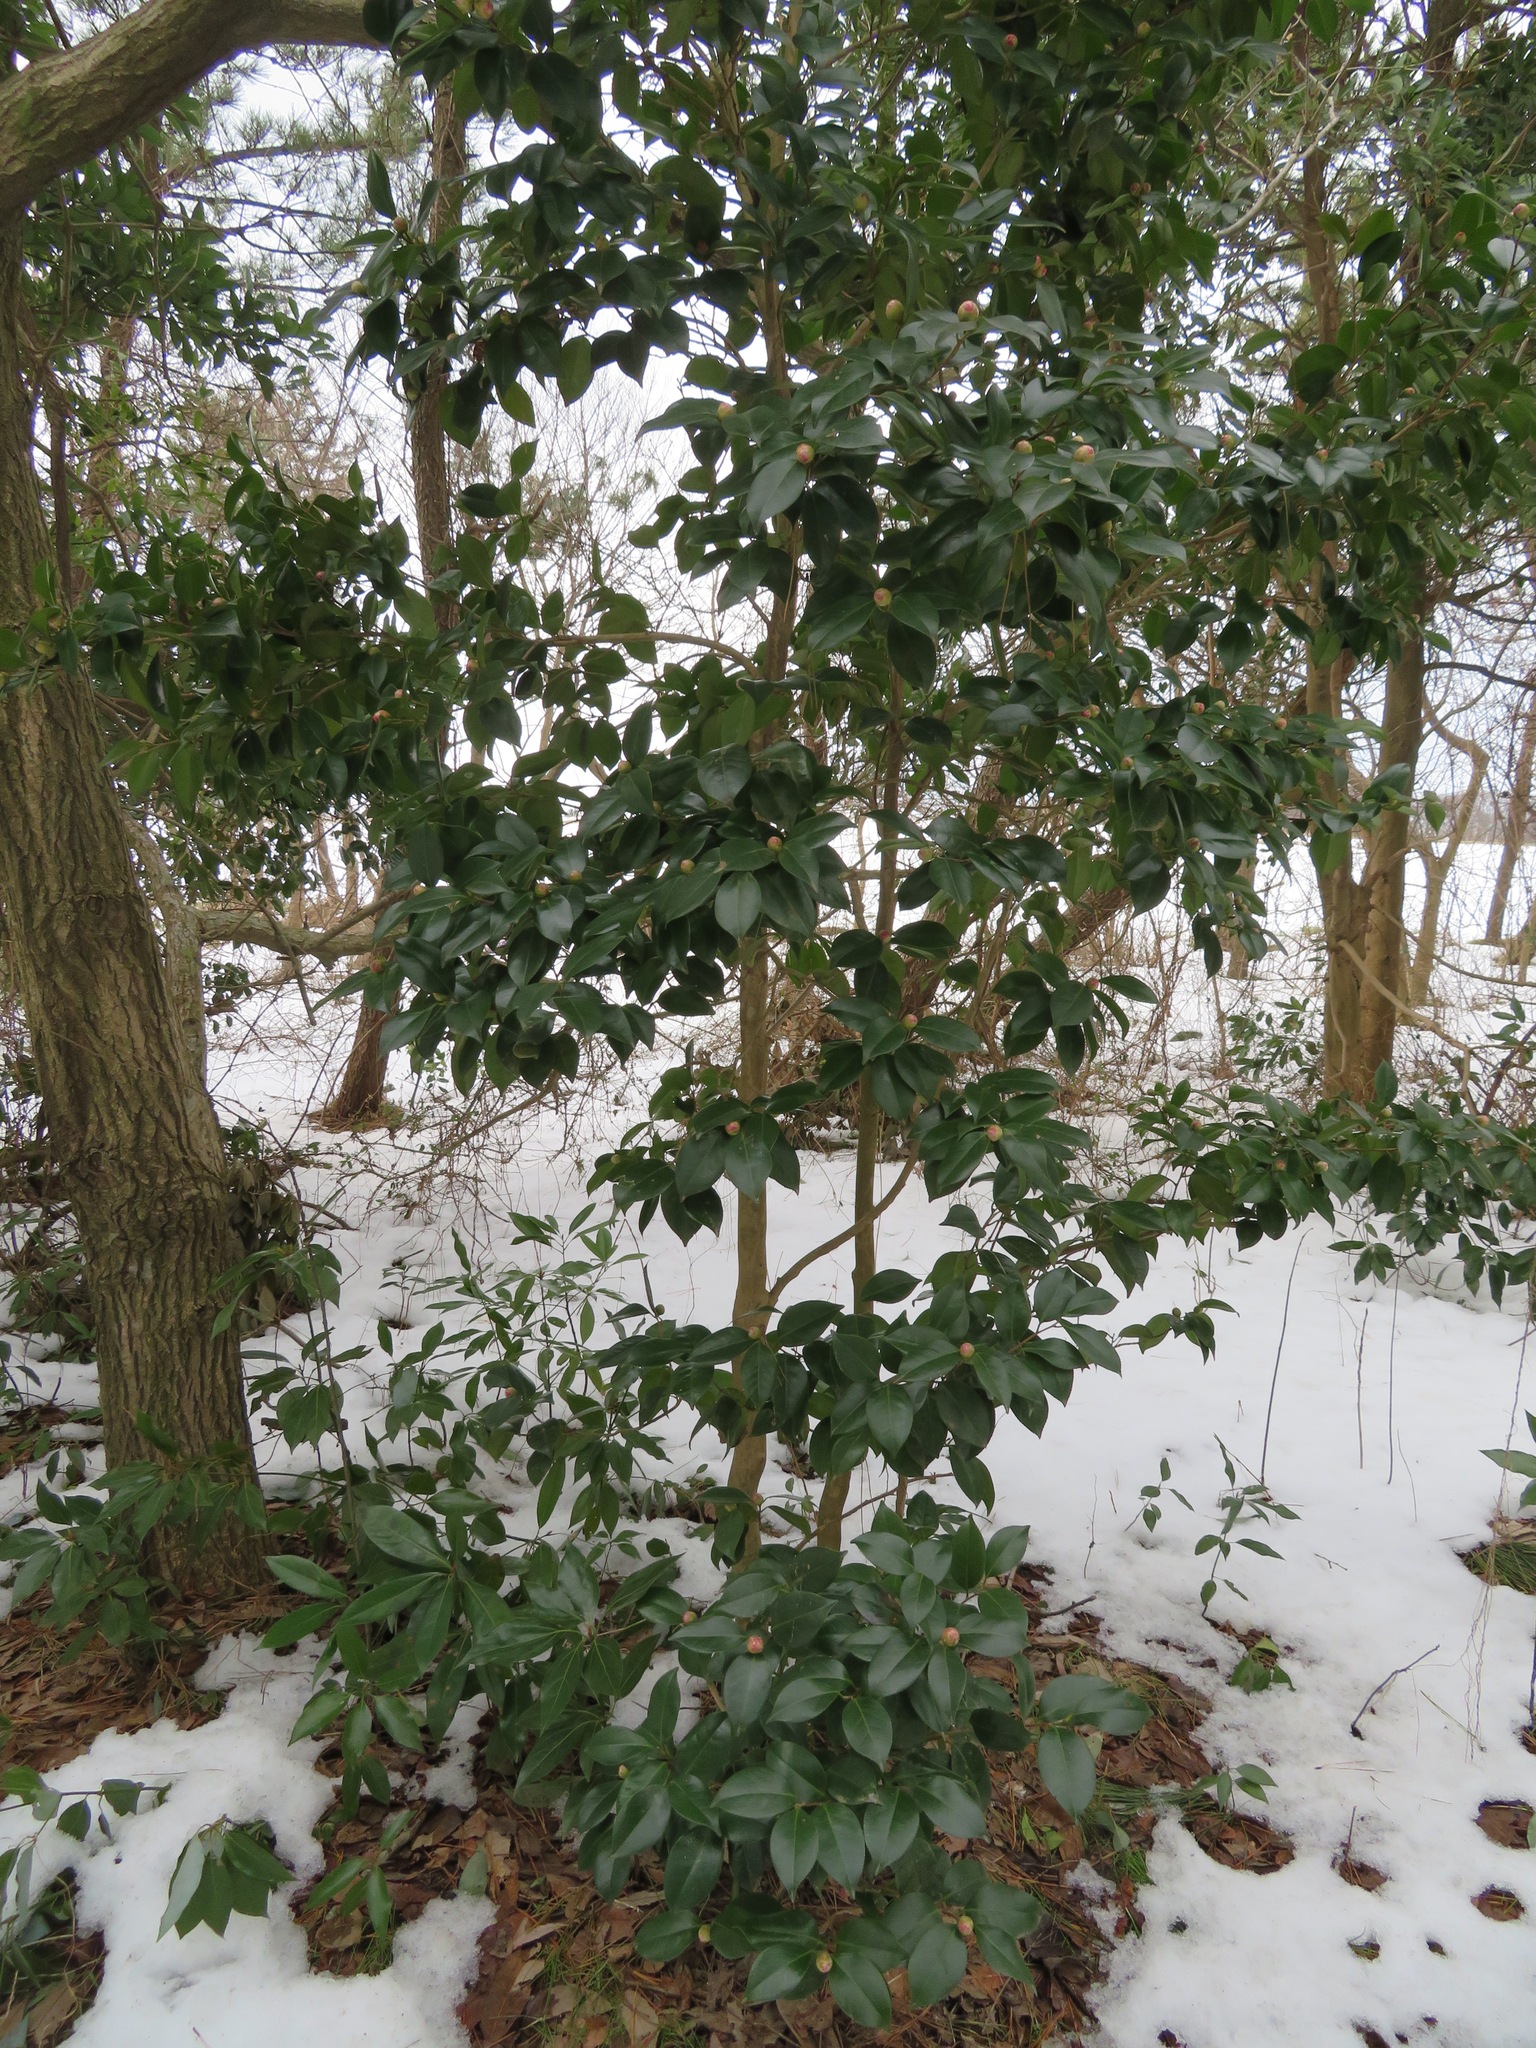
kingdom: Plantae
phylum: Tracheophyta
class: Magnoliopsida
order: Ericales
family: Theaceae
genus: Camellia
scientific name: Camellia japonica
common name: Camellia
